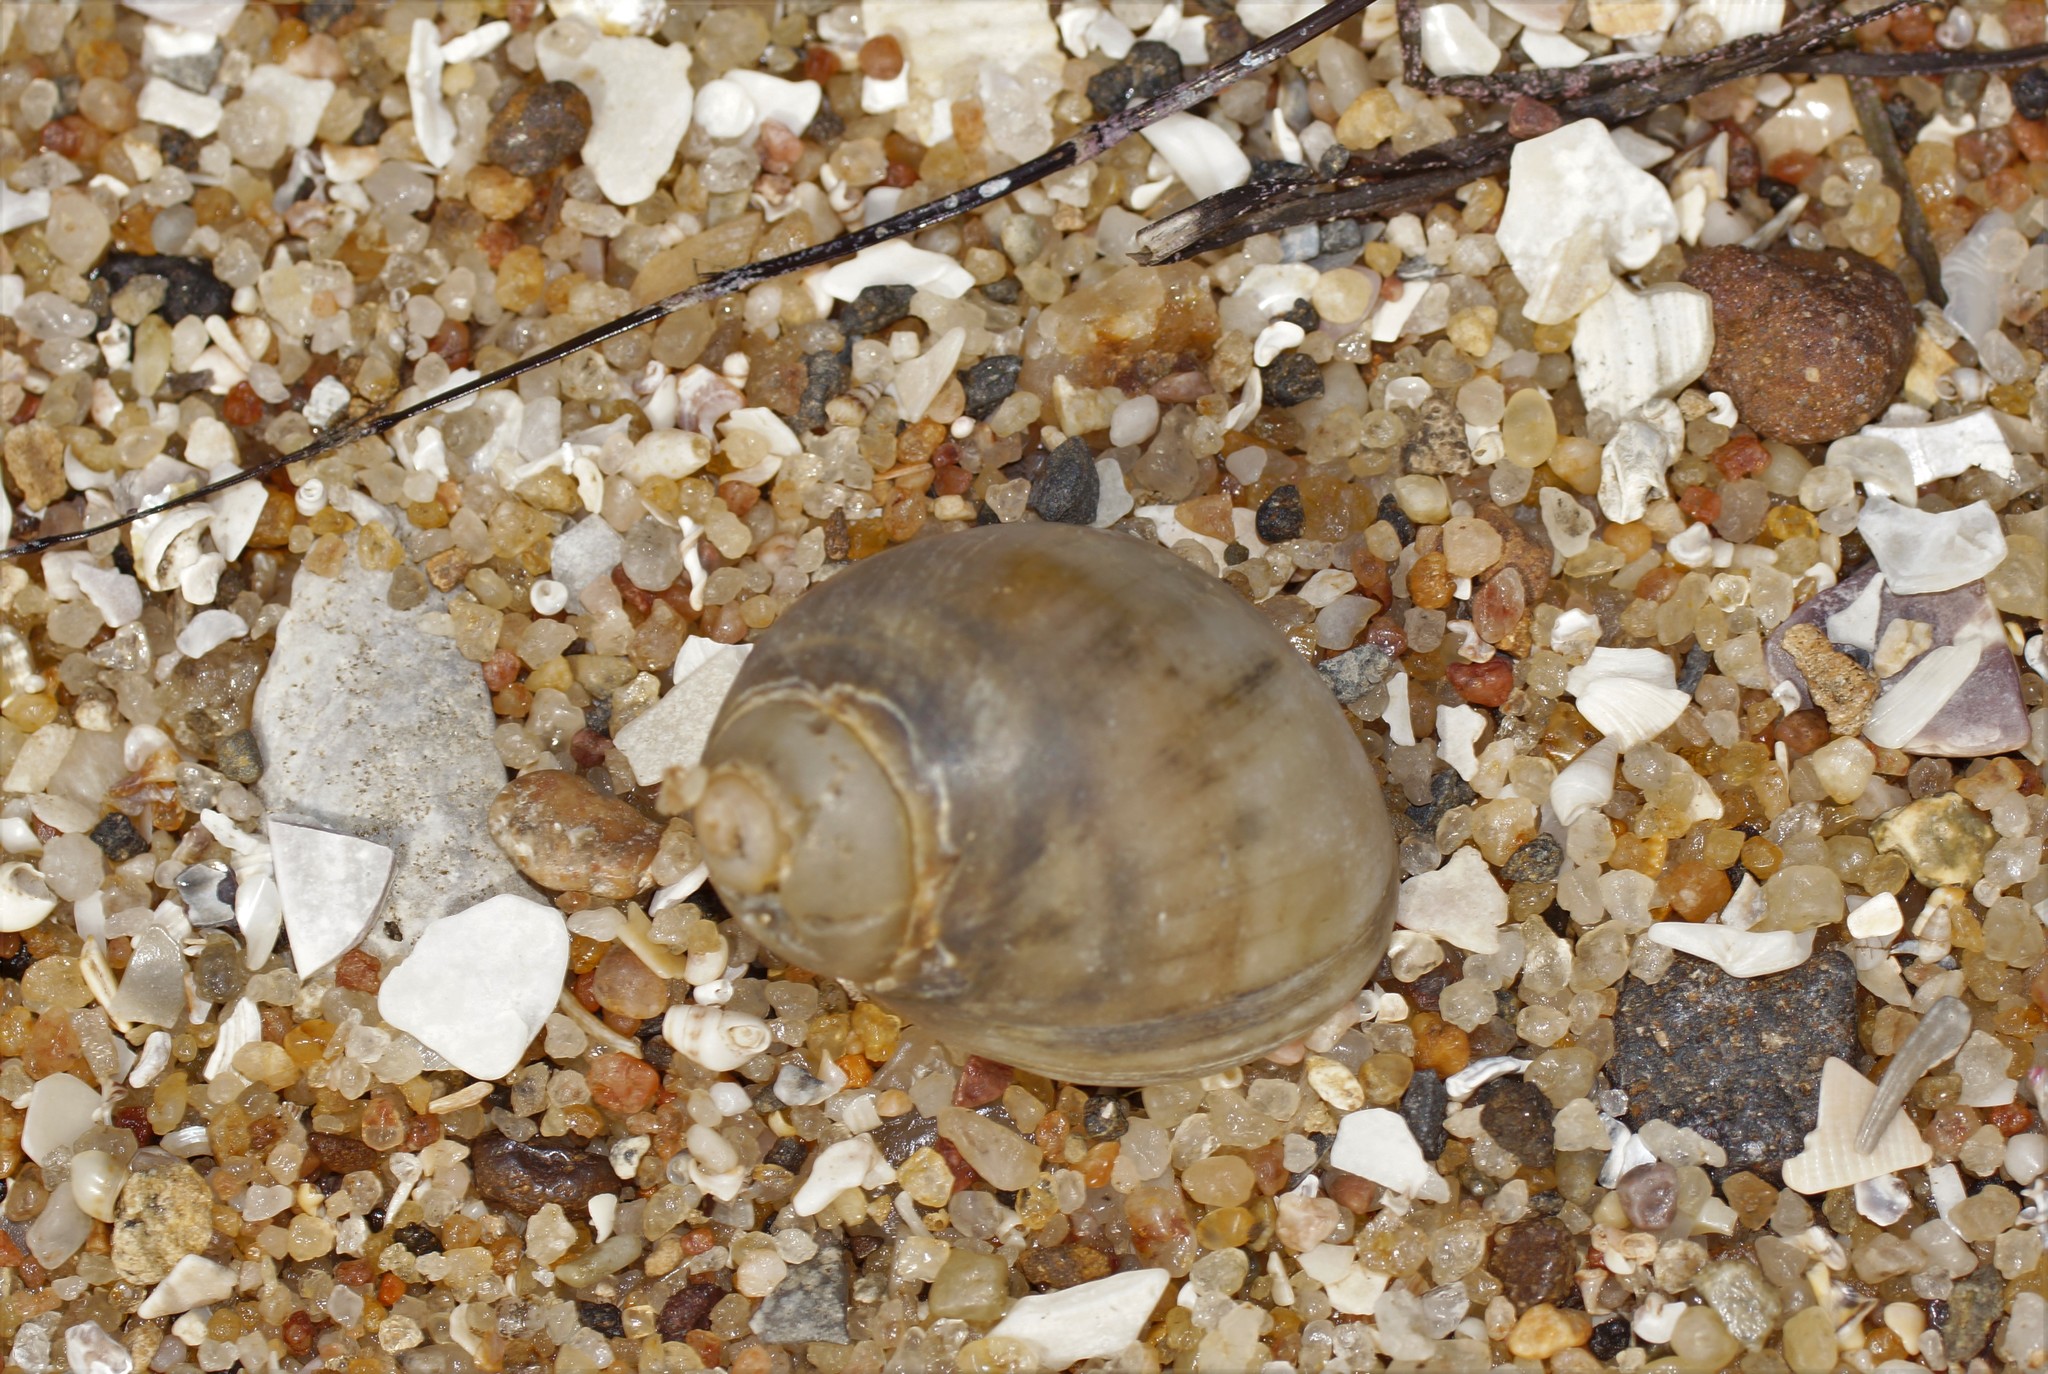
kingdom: Animalia
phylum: Mollusca
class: Gastropoda
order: Littorinimorpha
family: Naticidae
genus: Conuber
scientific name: Conuber conicum
